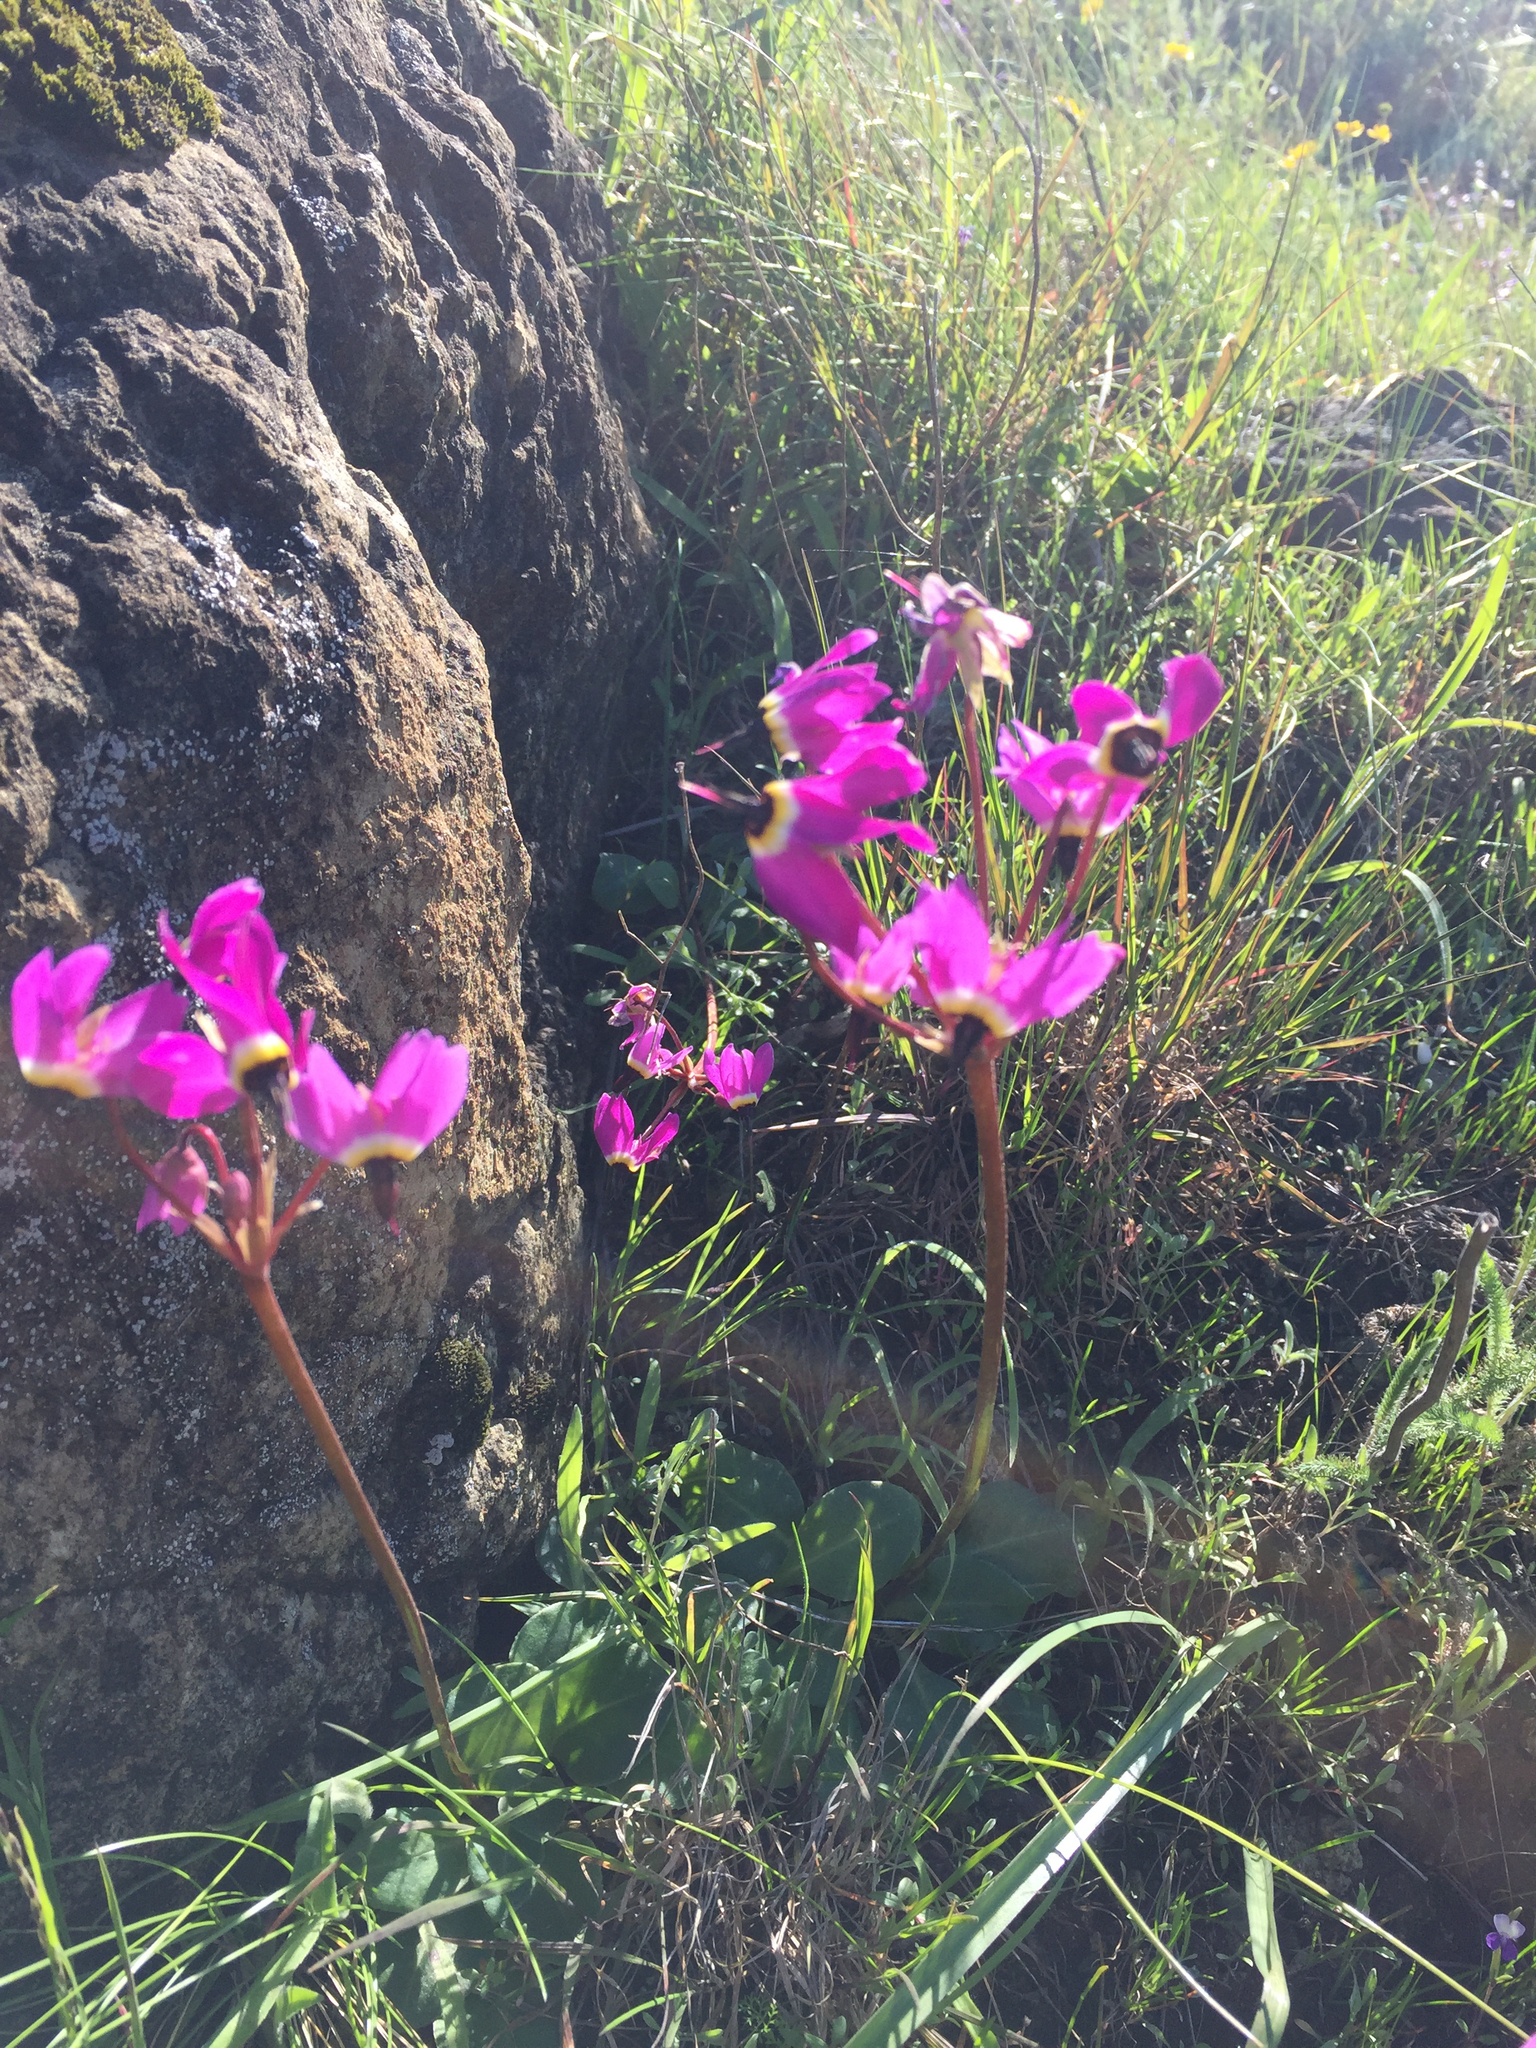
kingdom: Plantae
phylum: Tracheophyta
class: Magnoliopsida
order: Ericales
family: Primulaceae
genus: Dodecatheon
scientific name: Dodecatheon hendersonii
